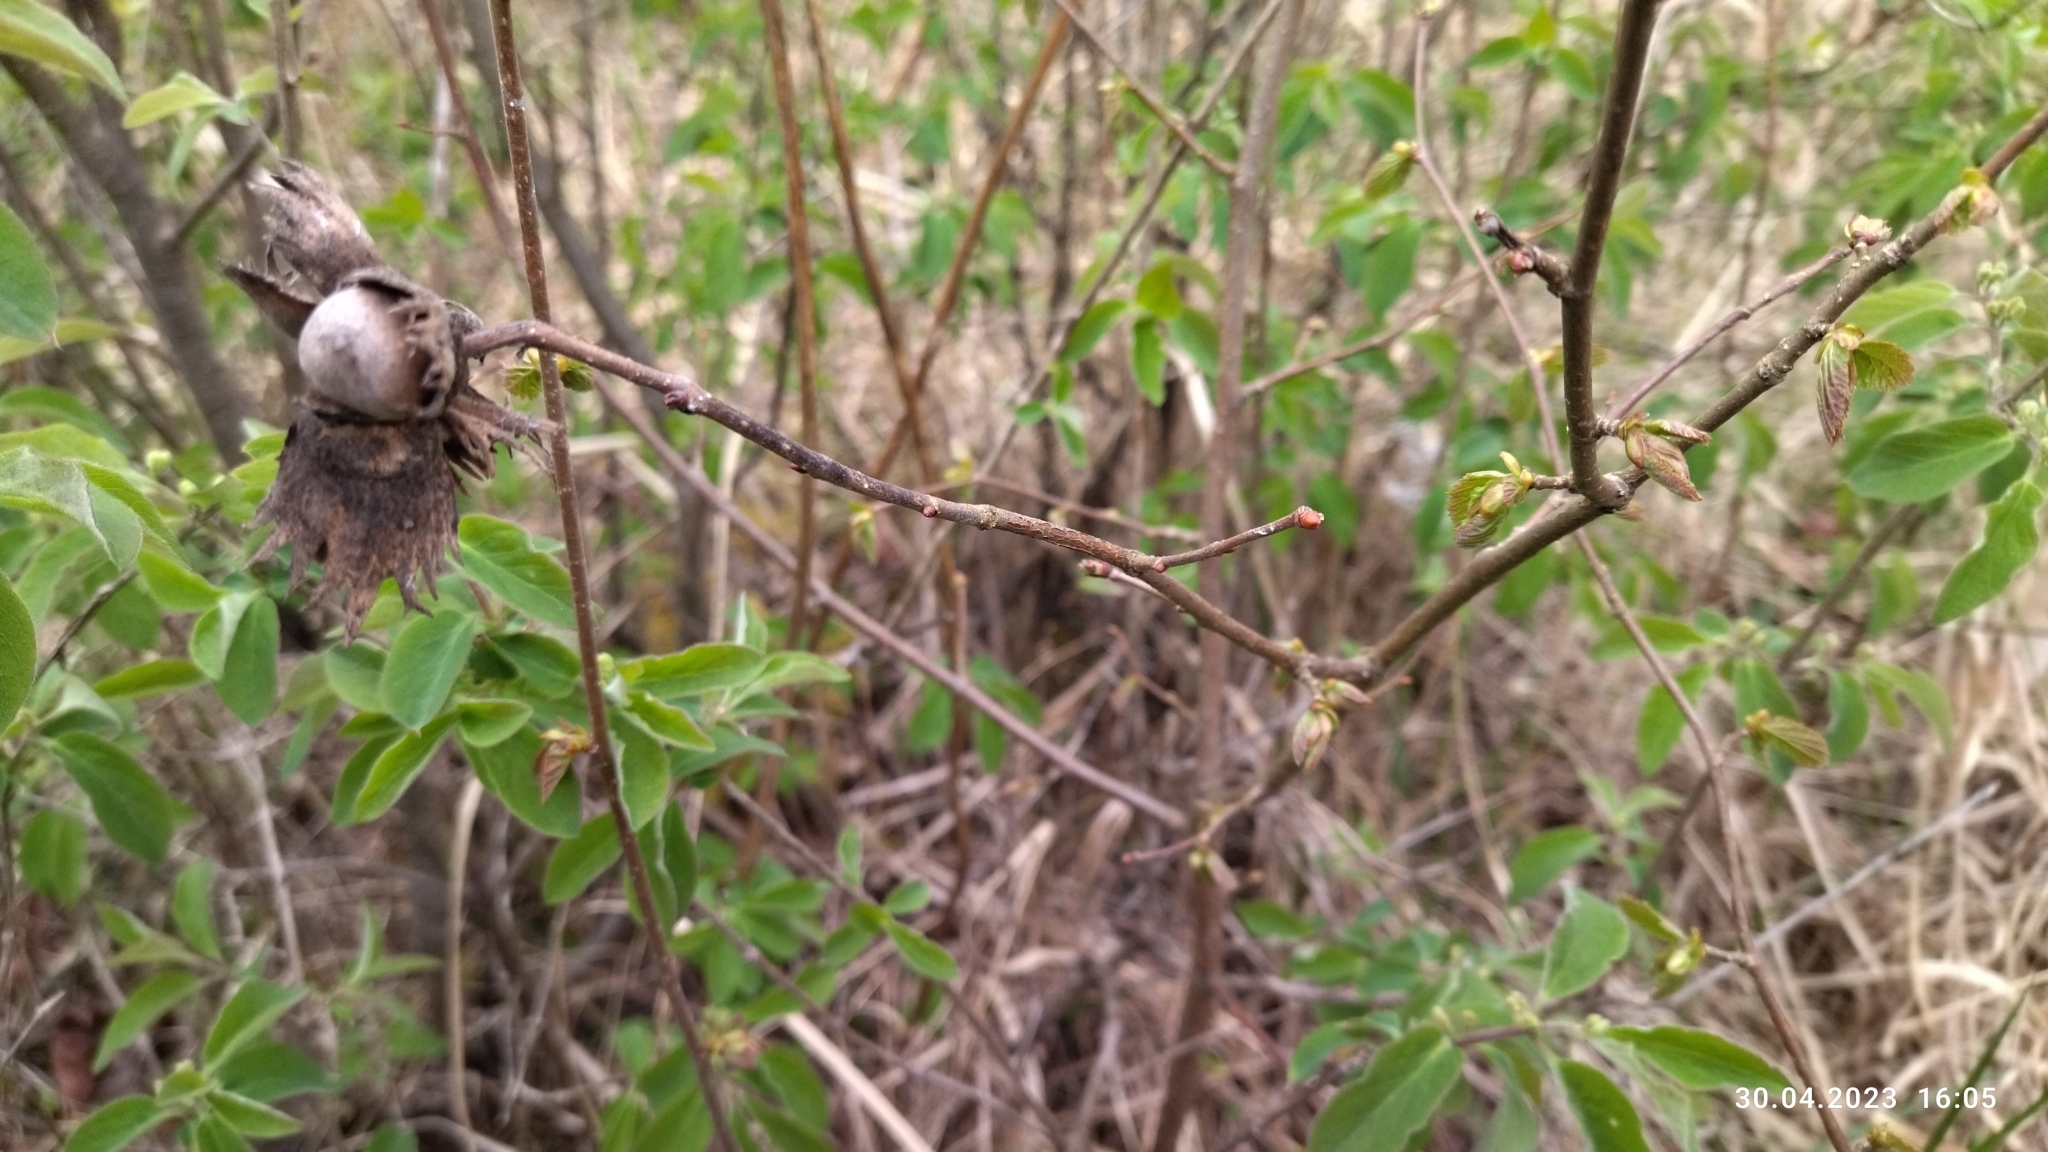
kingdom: Plantae
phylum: Tracheophyta
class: Magnoliopsida
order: Fagales
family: Betulaceae
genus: Corylus
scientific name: Corylus avellana
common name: European hazel
